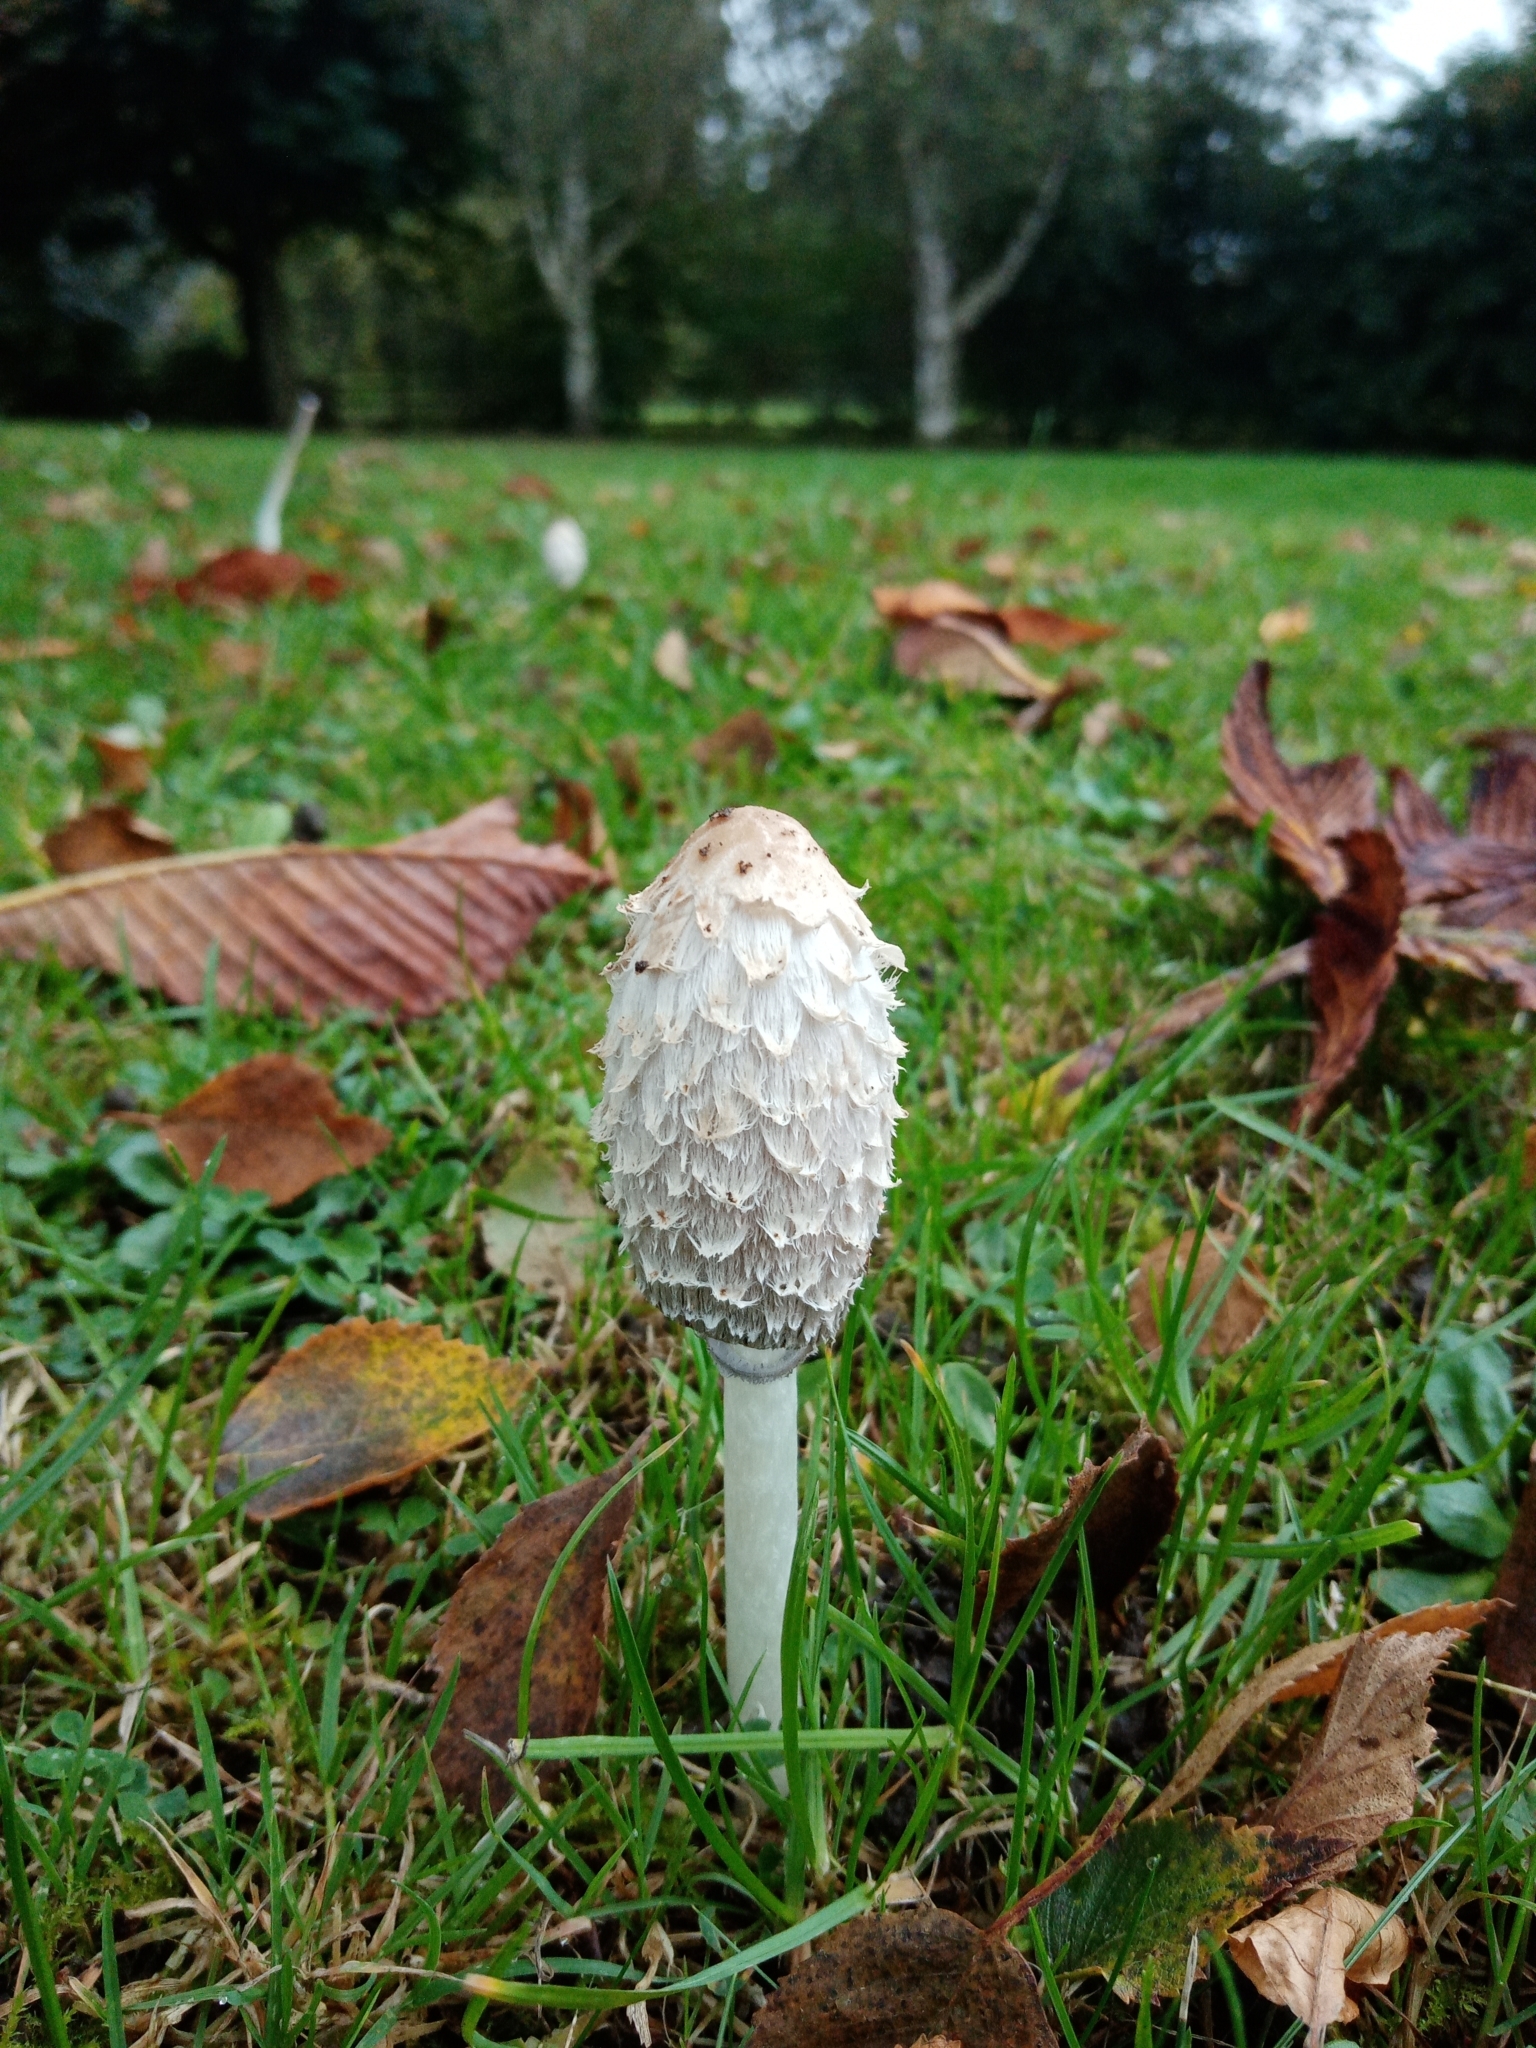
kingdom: Fungi
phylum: Basidiomycota
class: Agaricomycetes
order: Agaricales
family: Agaricaceae
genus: Coprinus
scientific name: Coprinus comatus
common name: Lawyer's wig
